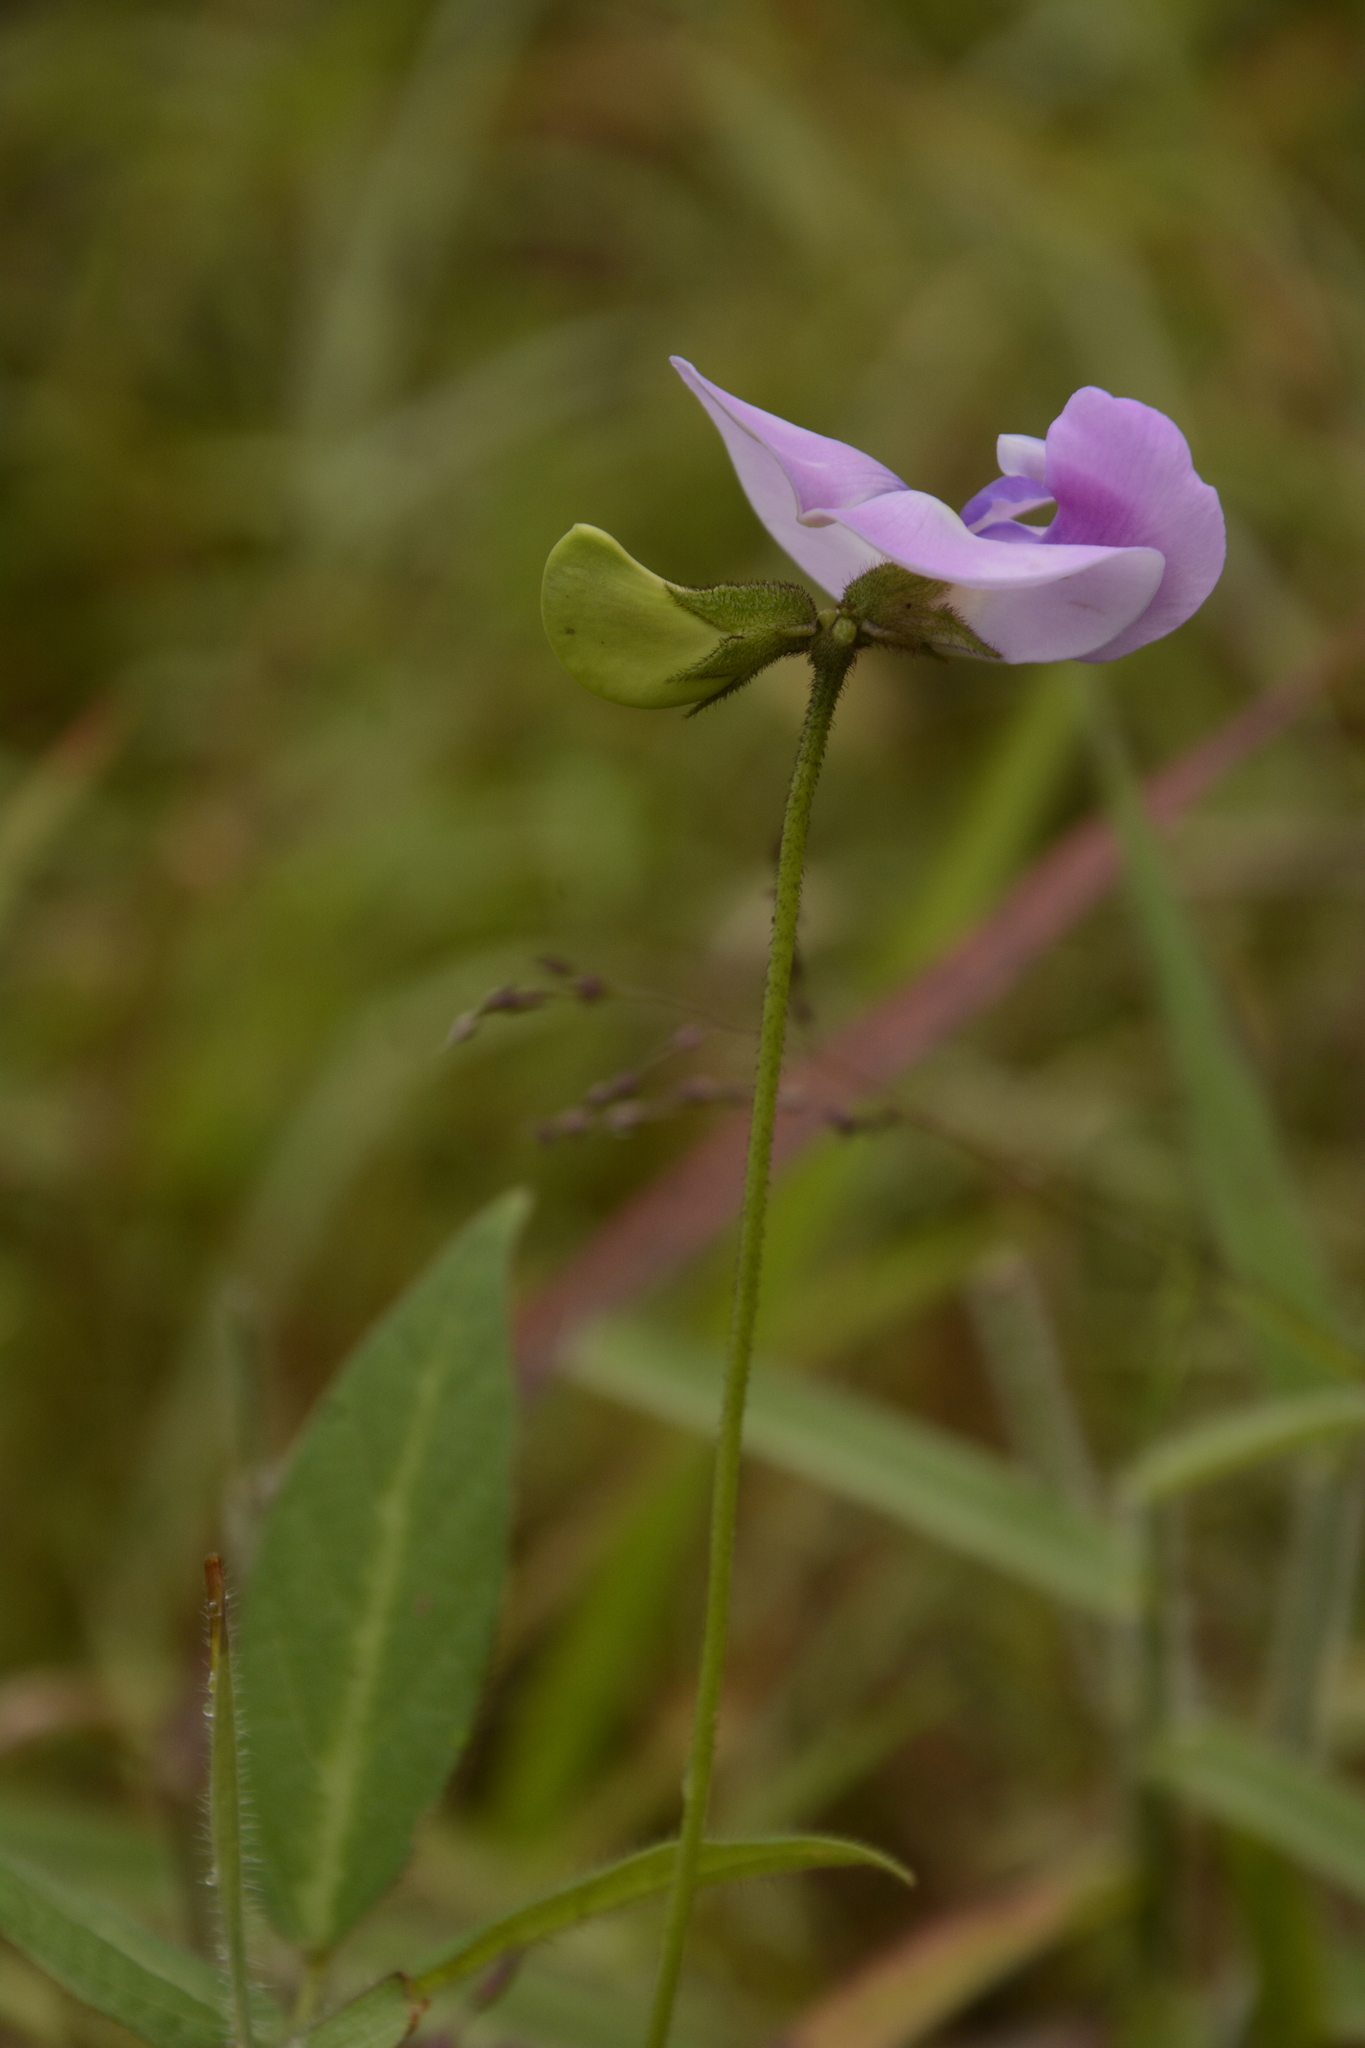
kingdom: Plantae
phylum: Tracheophyta
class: Magnoliopsida
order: Fabales
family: Fabaceae
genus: Vigna
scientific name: Vigna vexillata
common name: Zombi pea
